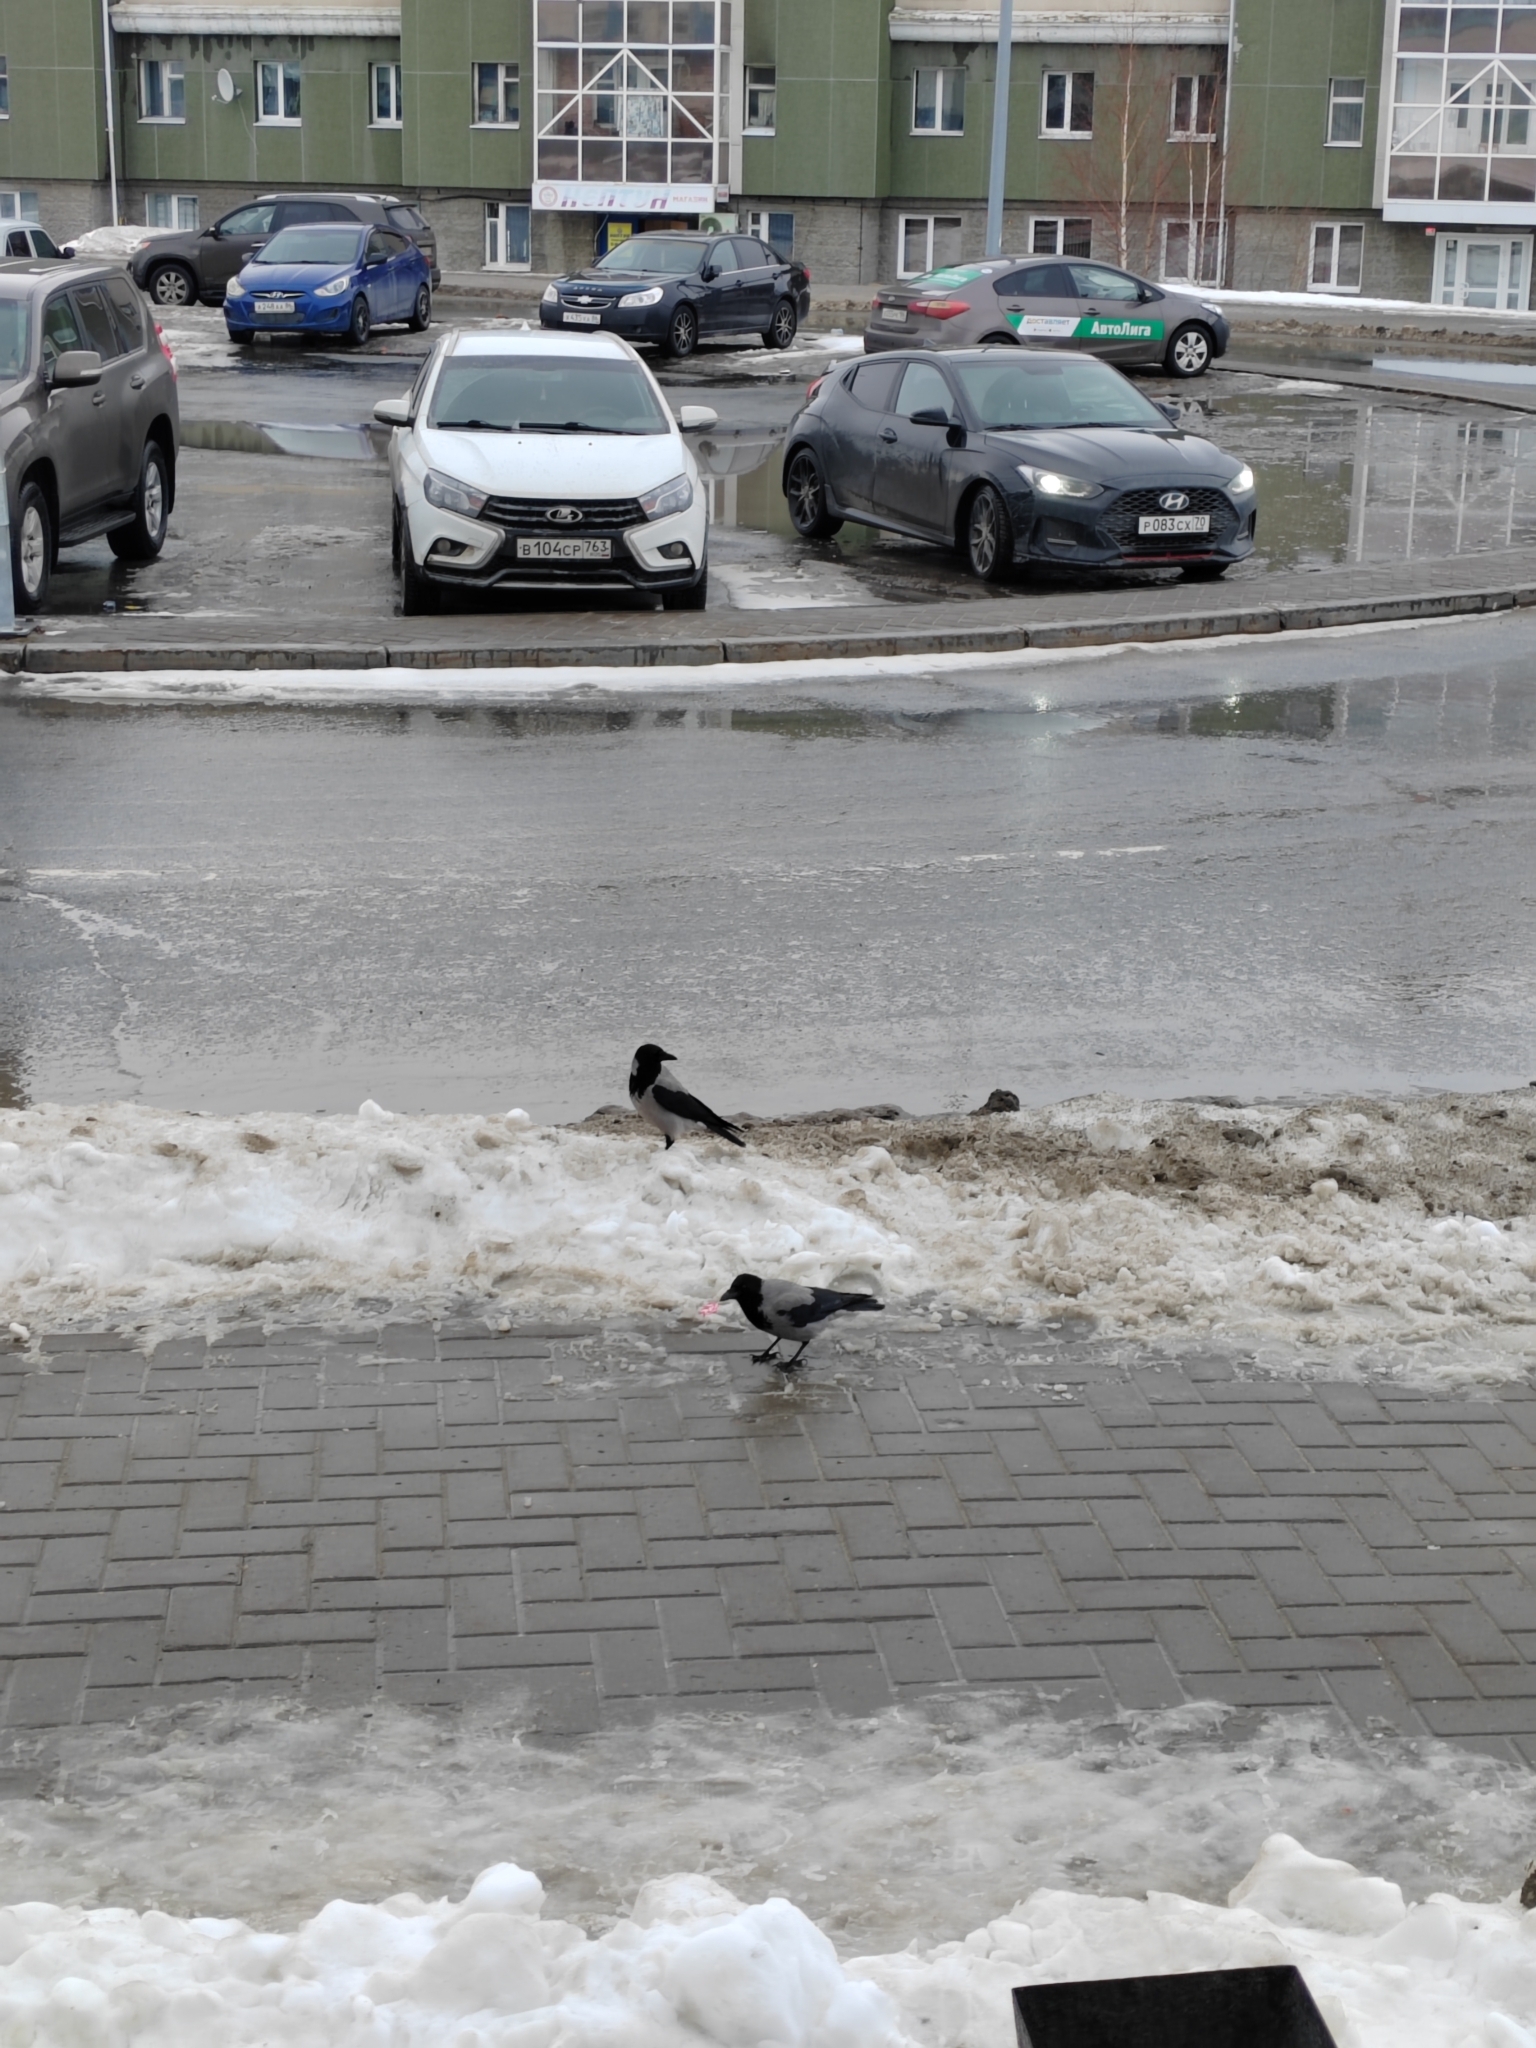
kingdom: Animalia
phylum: Chordata
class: Aves
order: Passeriformes
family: Corvidae
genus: Corvus
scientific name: Corvus cornix
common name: Hooded crow
